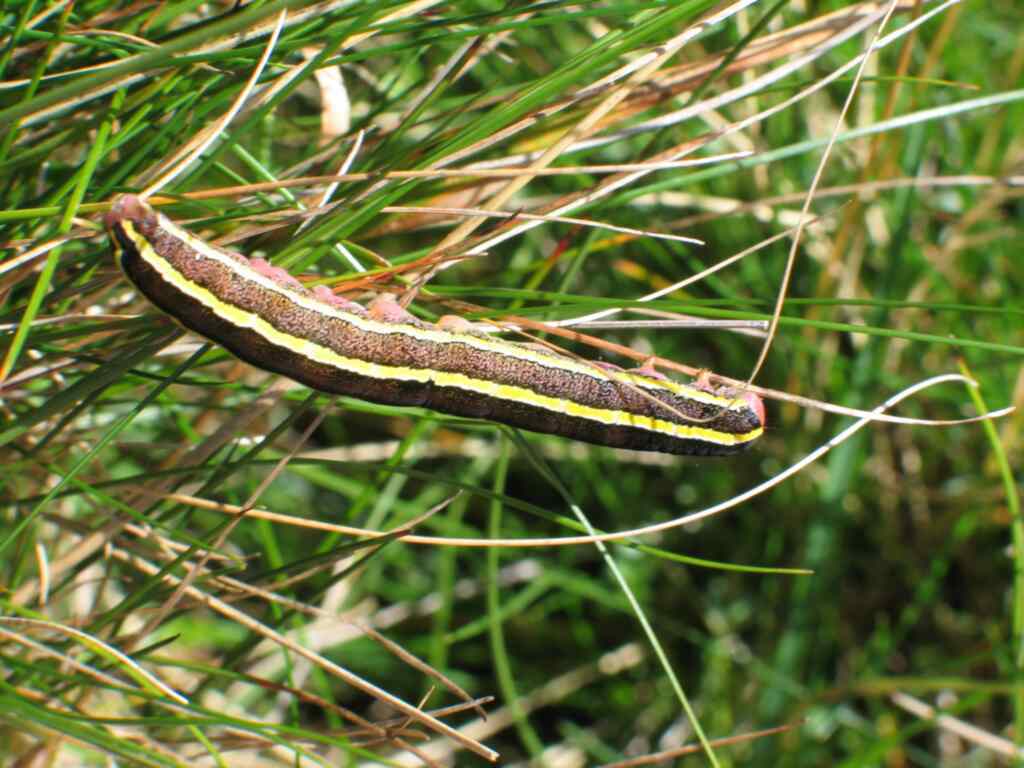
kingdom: Animalia
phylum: Arthropoda
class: Insecta
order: Lepidoptera
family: Noctuidae
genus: Ceramica
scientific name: Ceramica pisi
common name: Broom moth
